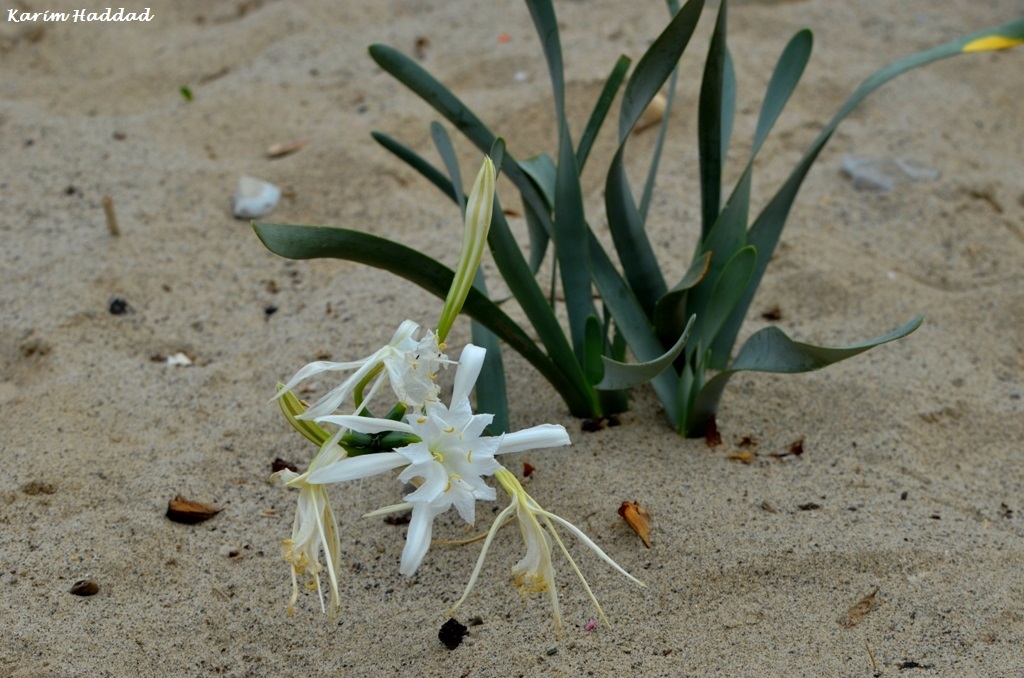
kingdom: Plantae
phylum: Tracheophyta
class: Liliopsida
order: Asparagales
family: Amaryllidaceae
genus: Pancratium
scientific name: Pancratium maritimum
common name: Sea-daffodil
